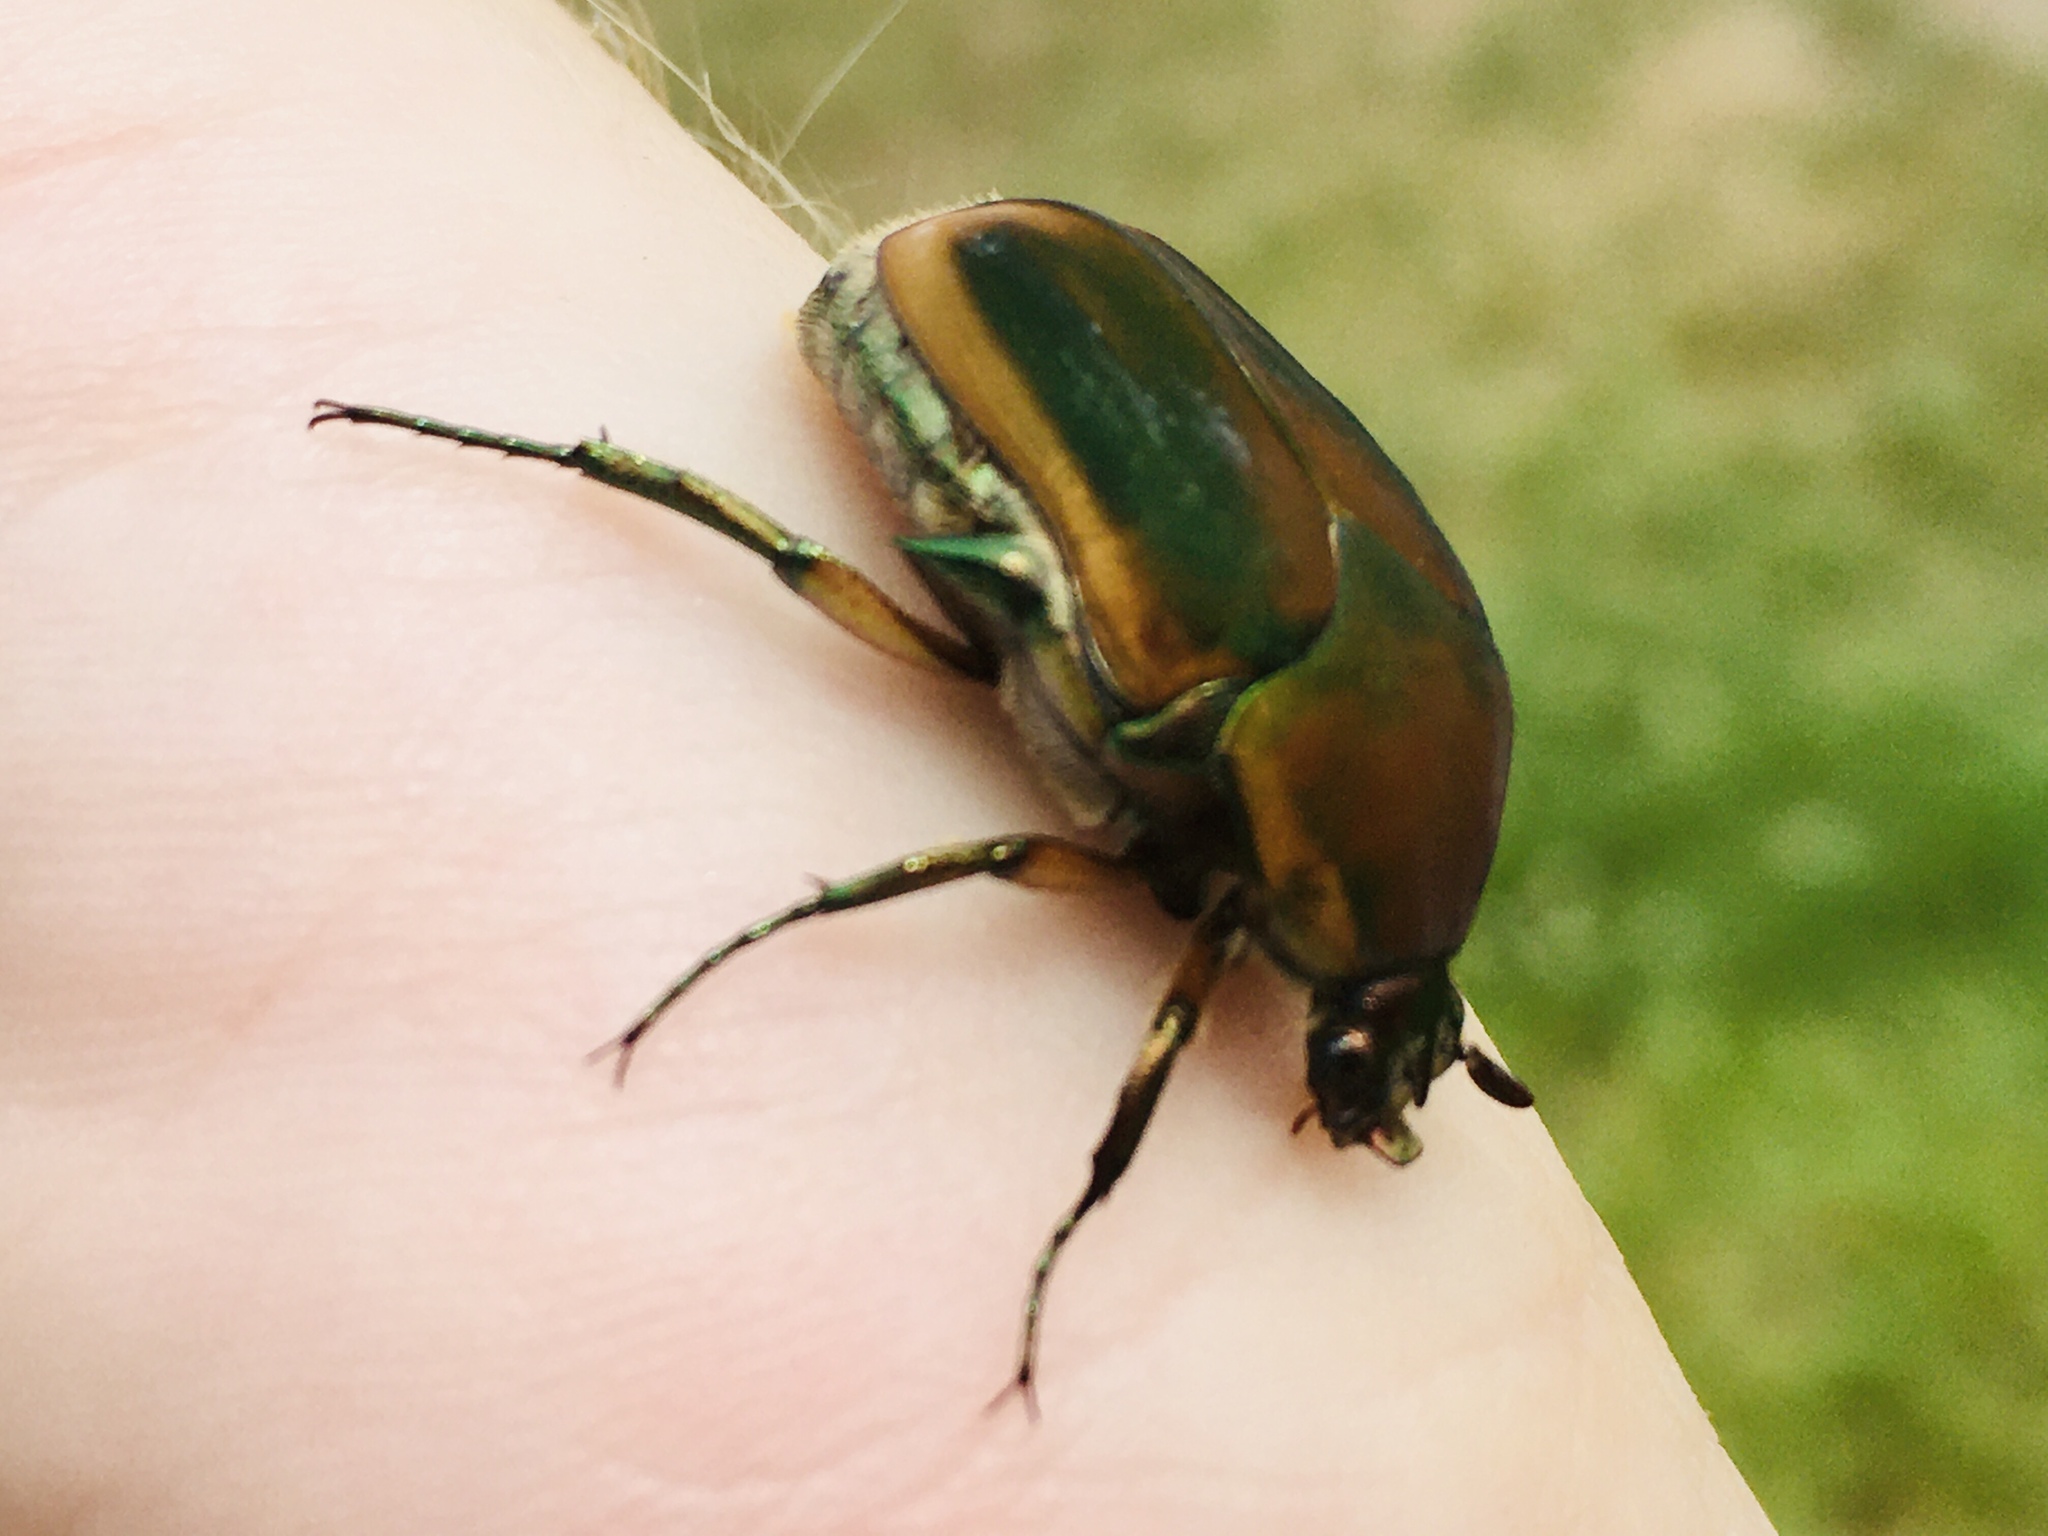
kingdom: Animalia
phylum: Arthropoda
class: Insecta
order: Coleoptera
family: Scarabaeidae
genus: Cotinis
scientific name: Cotinis nitida
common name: Common green june beetle
